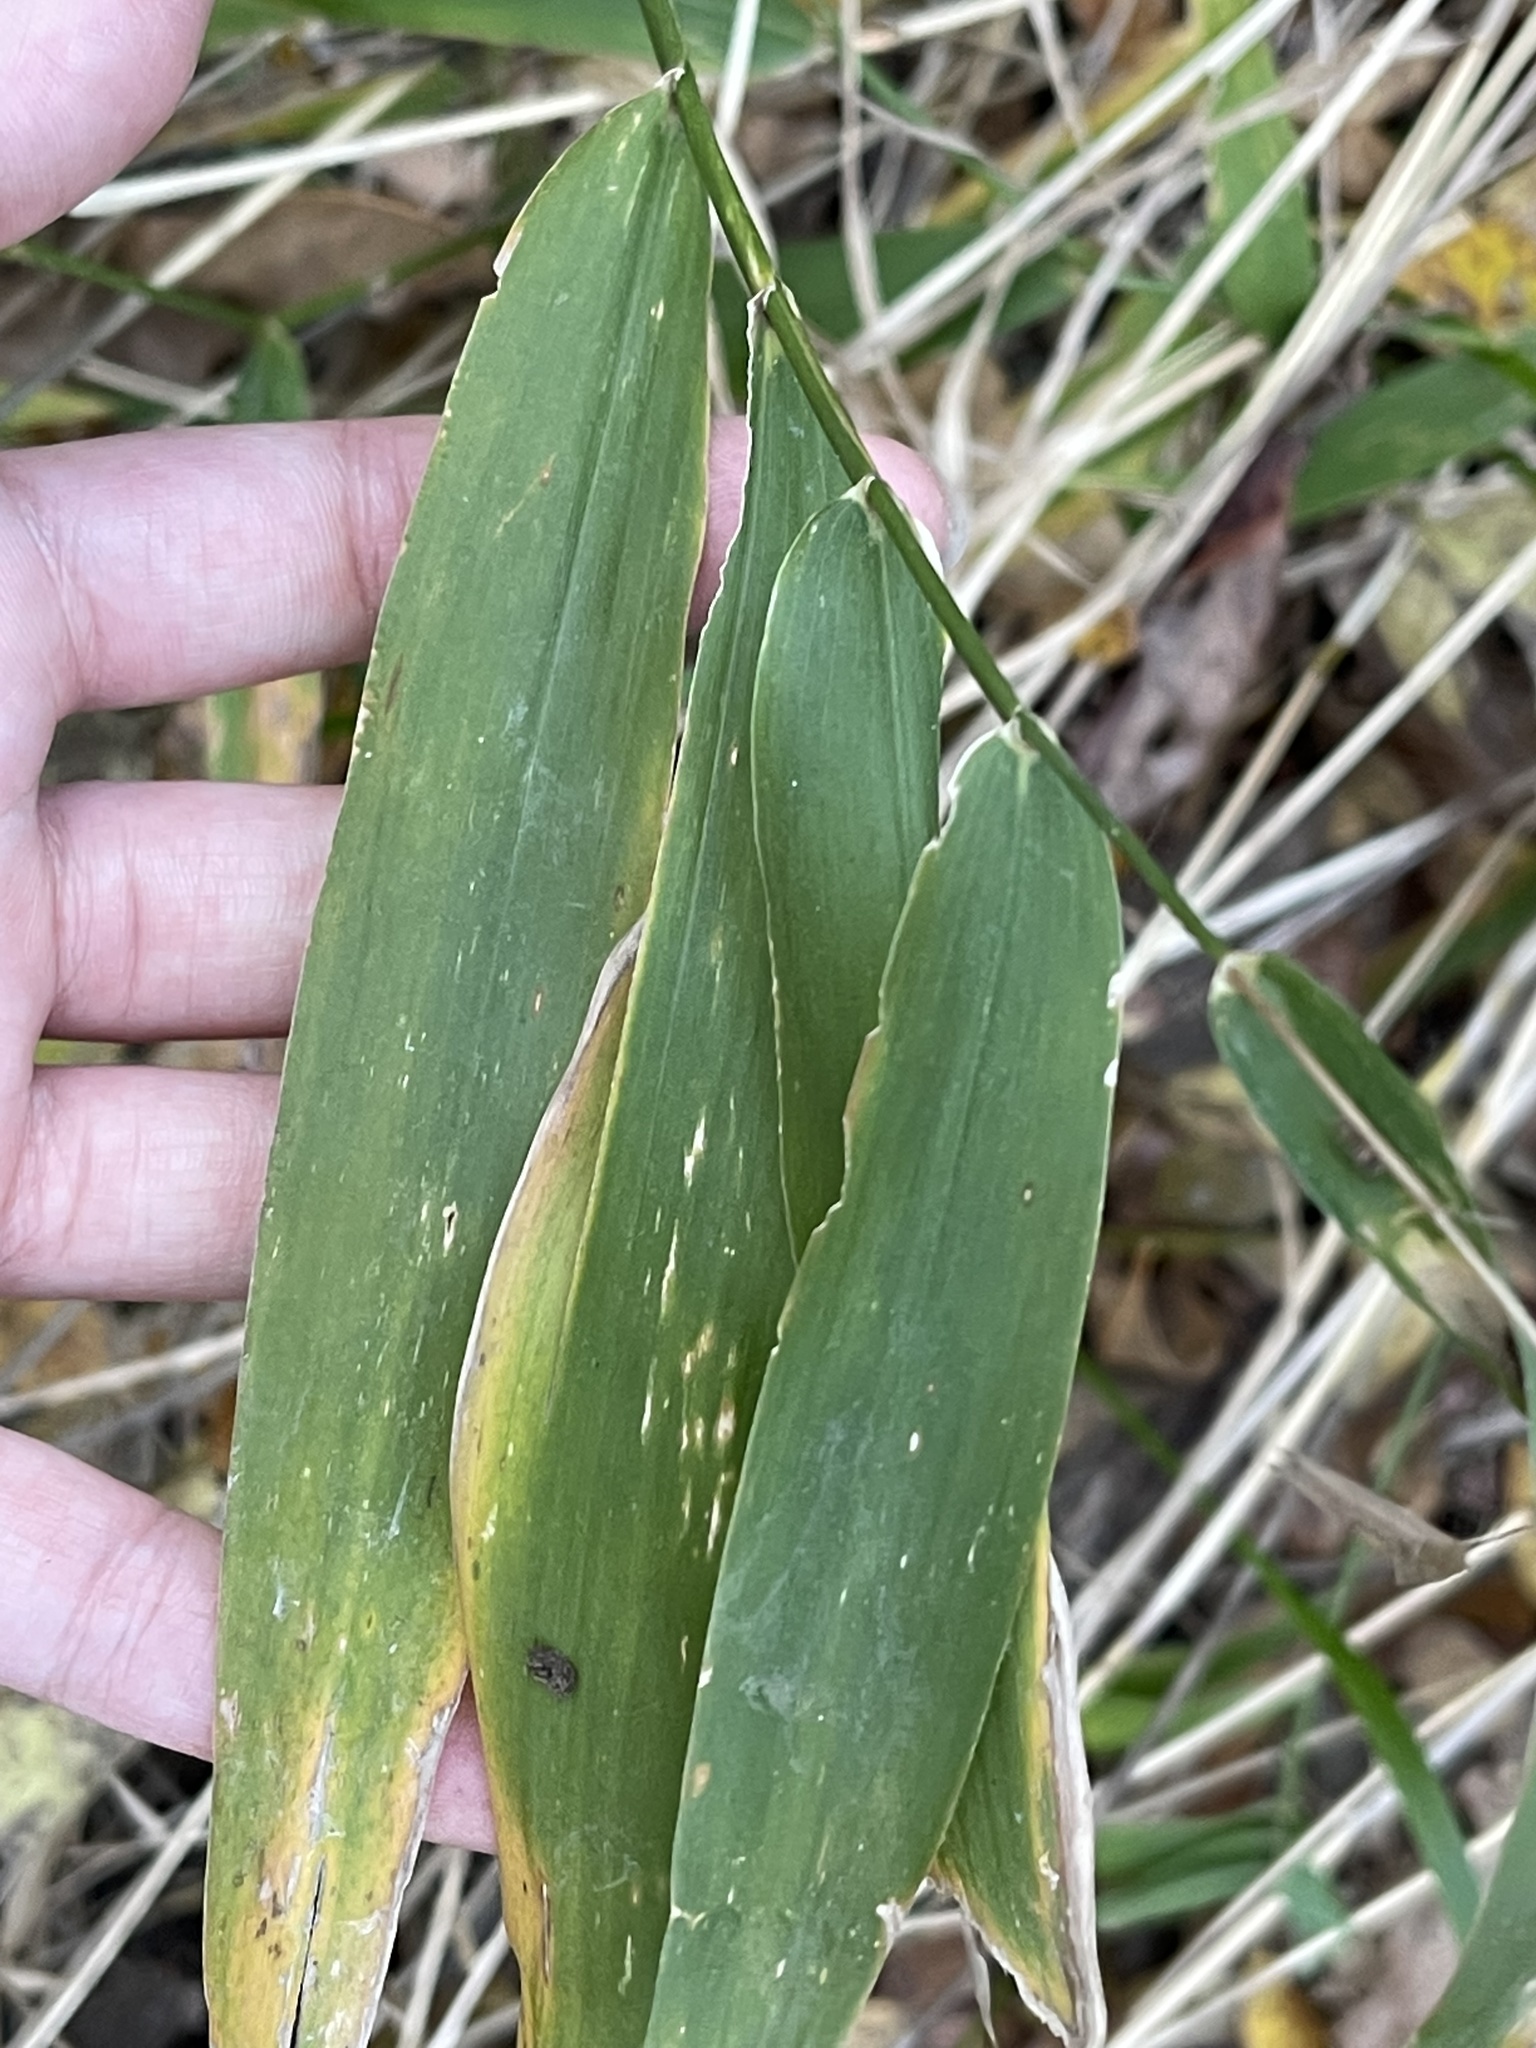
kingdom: Plantae
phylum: Tracheophyta
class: Liliopsida
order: Poales
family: Poaceae
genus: Chasmanthium
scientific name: Chasmanthium latifolium
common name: Broad-leaved chasmanthium
